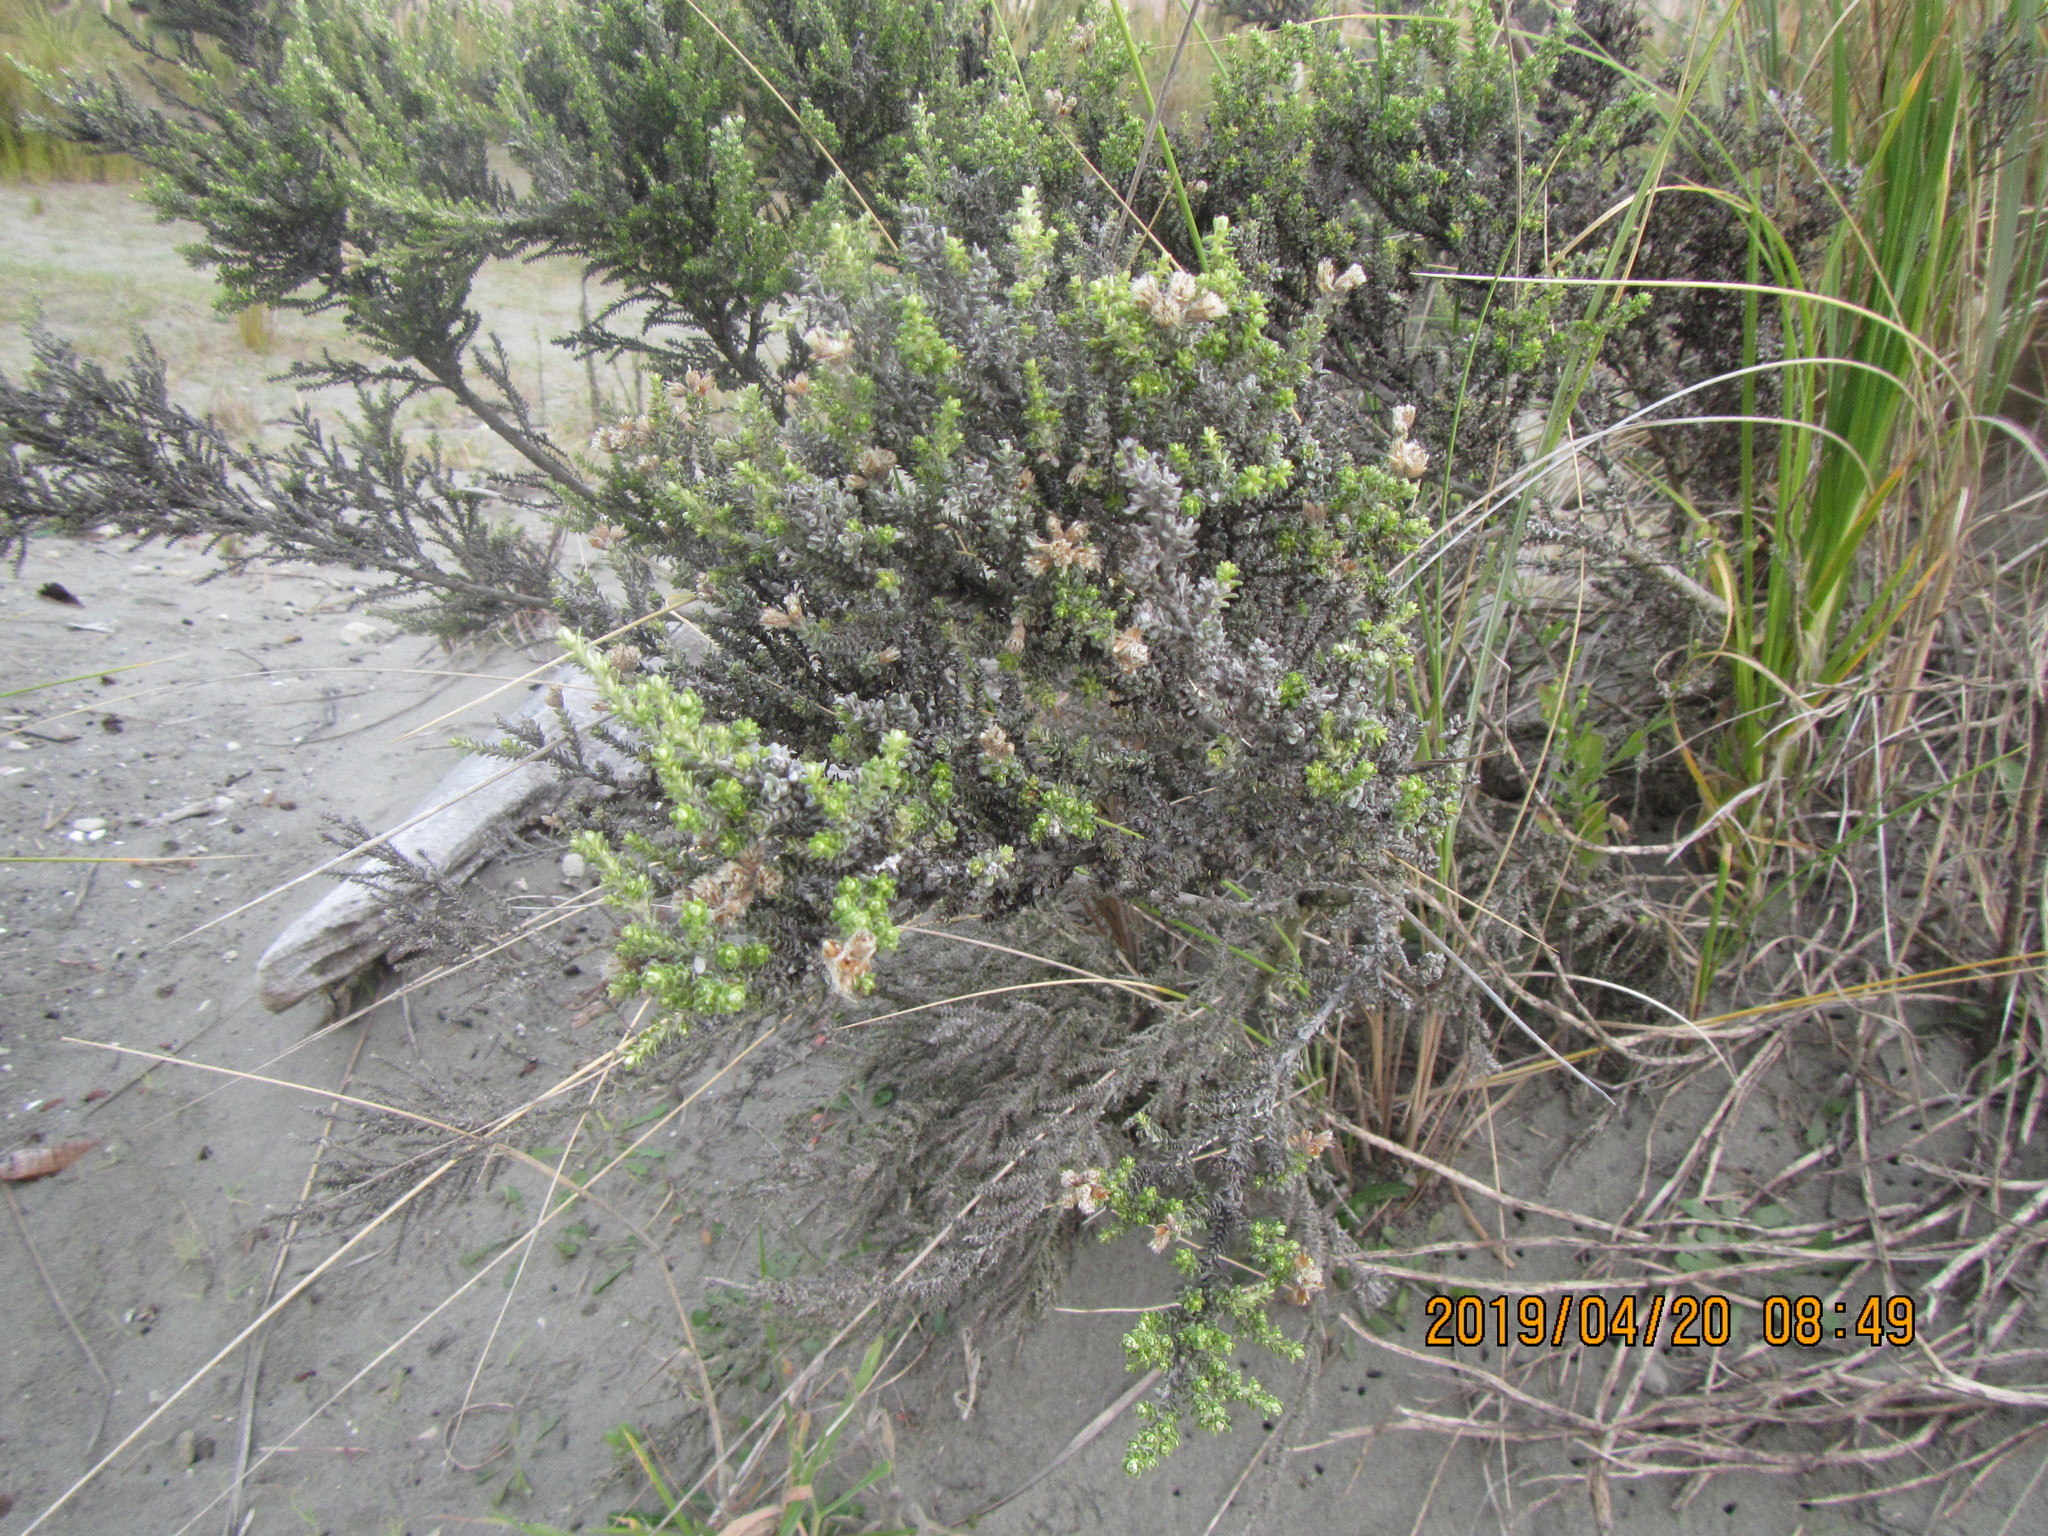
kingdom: Plantae
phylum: Tracheophyta
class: Magnoliopsida
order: Asterales
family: Asteraceae
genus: Ozothamnus
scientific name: Ozothamnus leptophyllus
